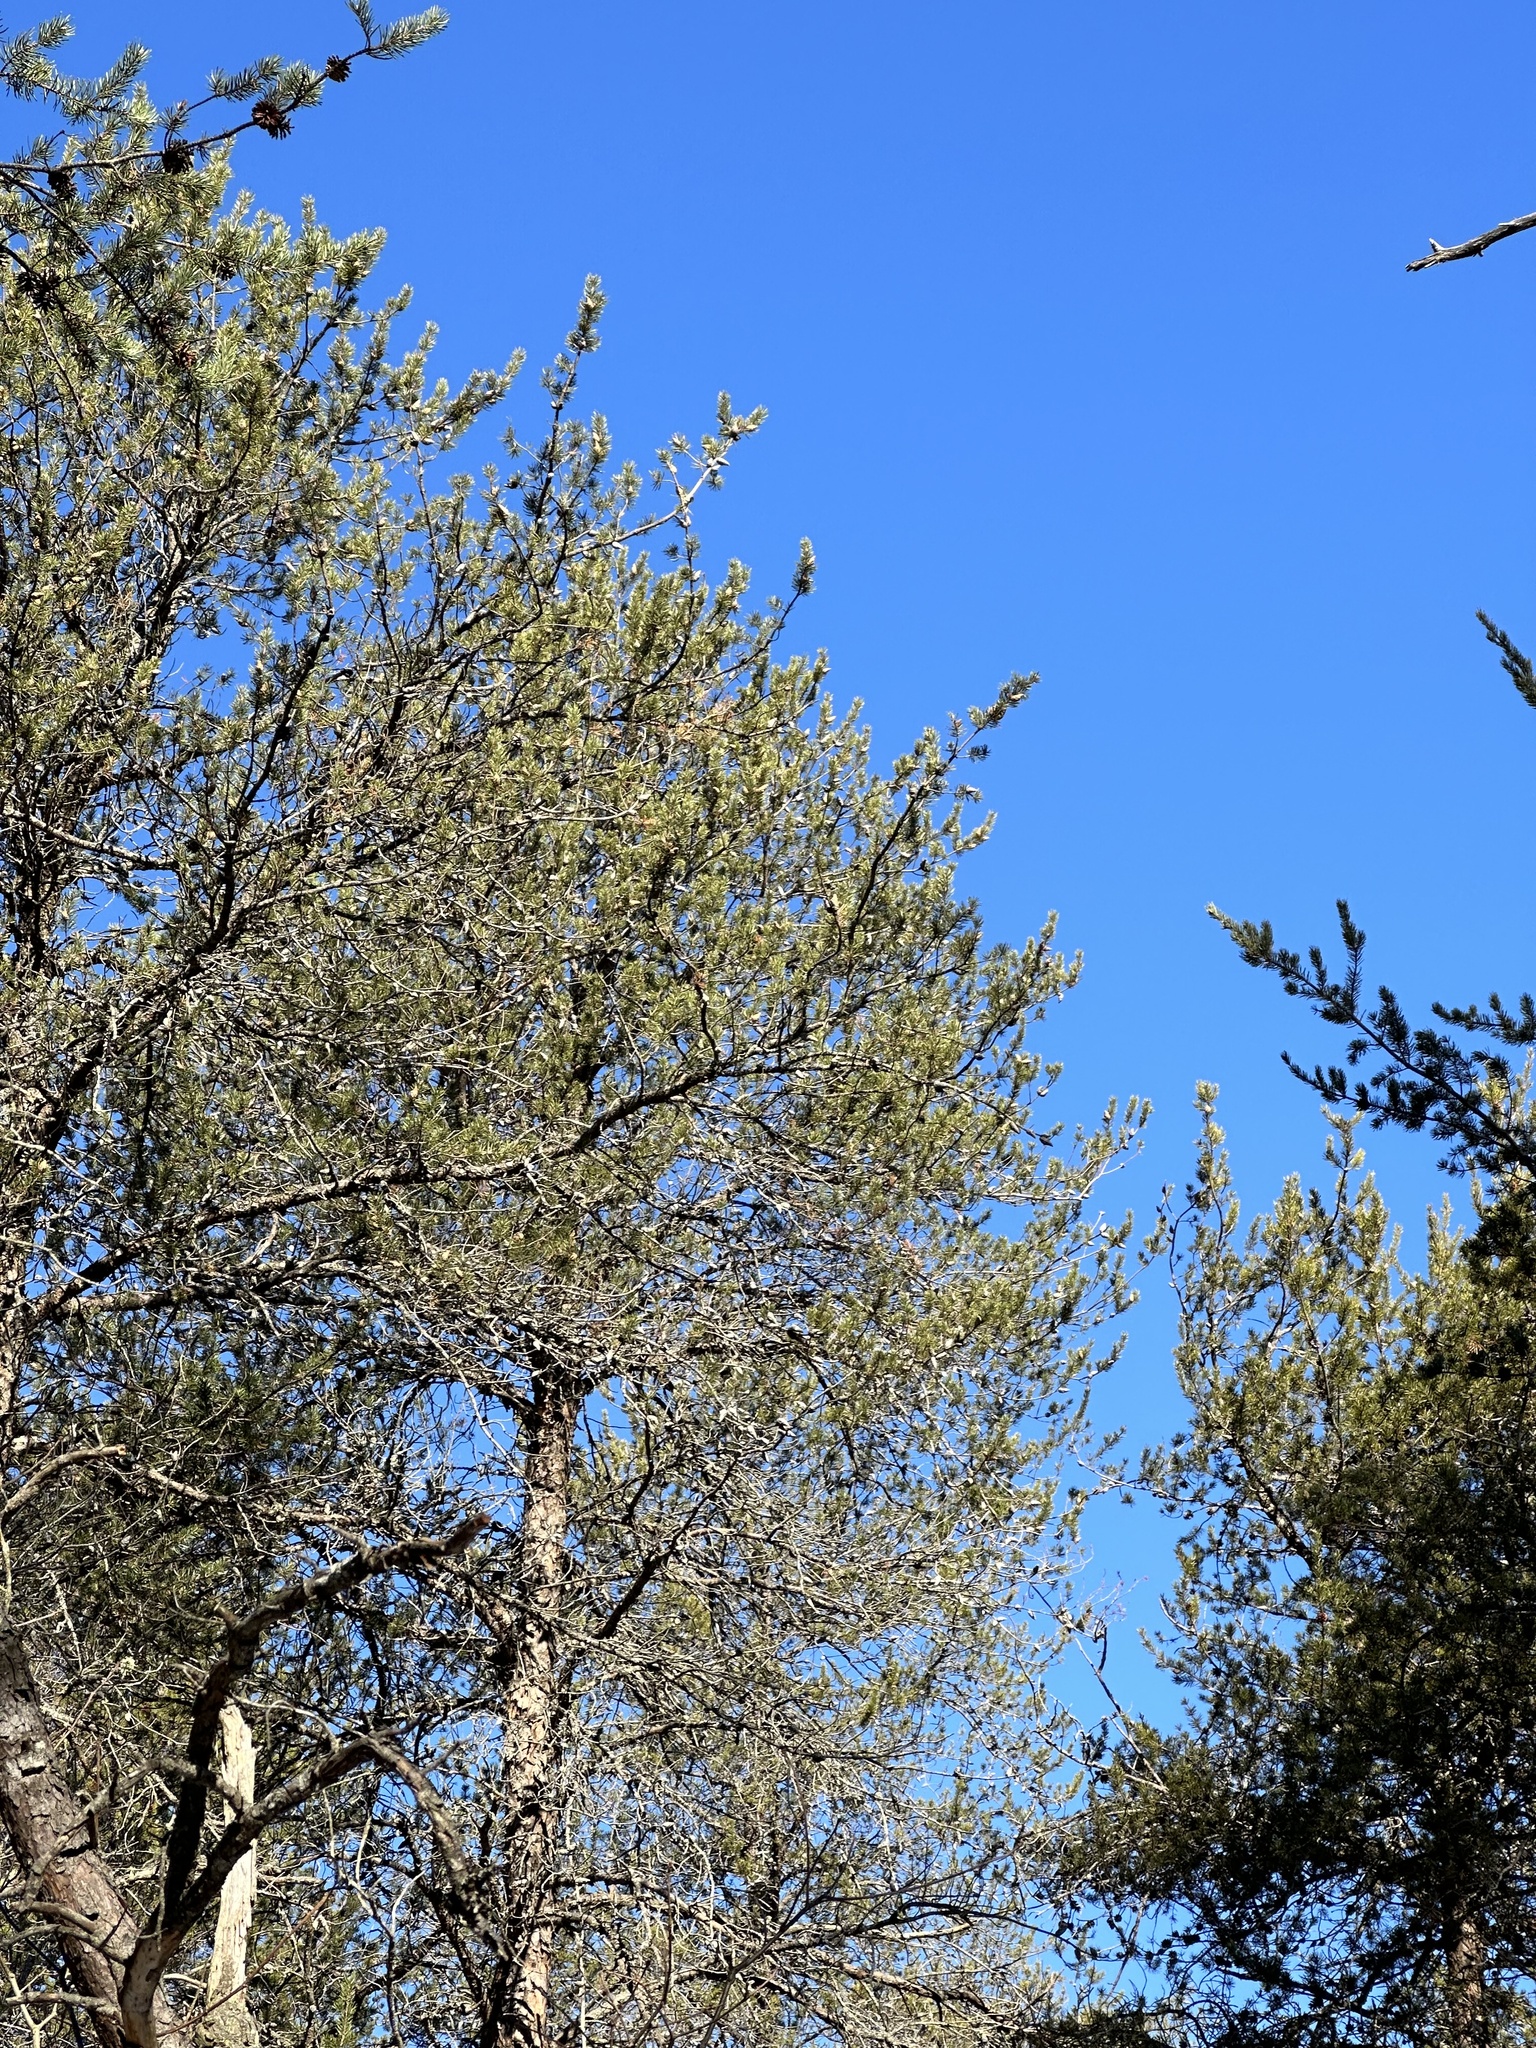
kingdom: Plantae
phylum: Tracheophyta
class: Pinopsida
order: Pinales
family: Pinaceae
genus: Pinus
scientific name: Pinus banksiana
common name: Jack pine
